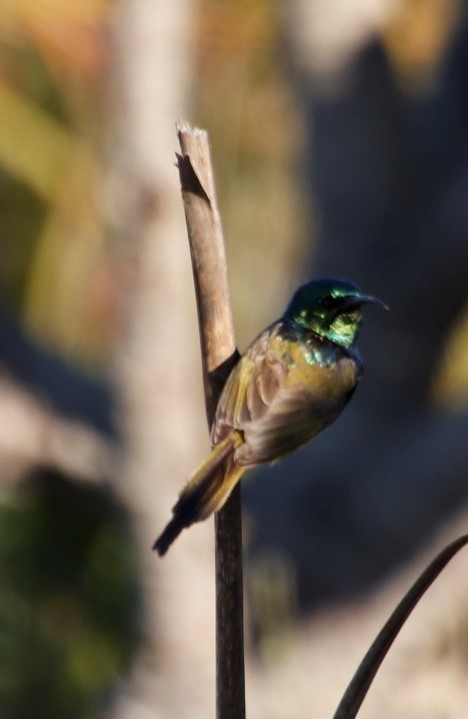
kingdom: Animalia
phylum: Chordata
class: Aves
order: Passeriformes
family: Nectariniidae
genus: Anthobaphes
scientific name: Anthobaphes violacea
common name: Orange-breasted sunbird
